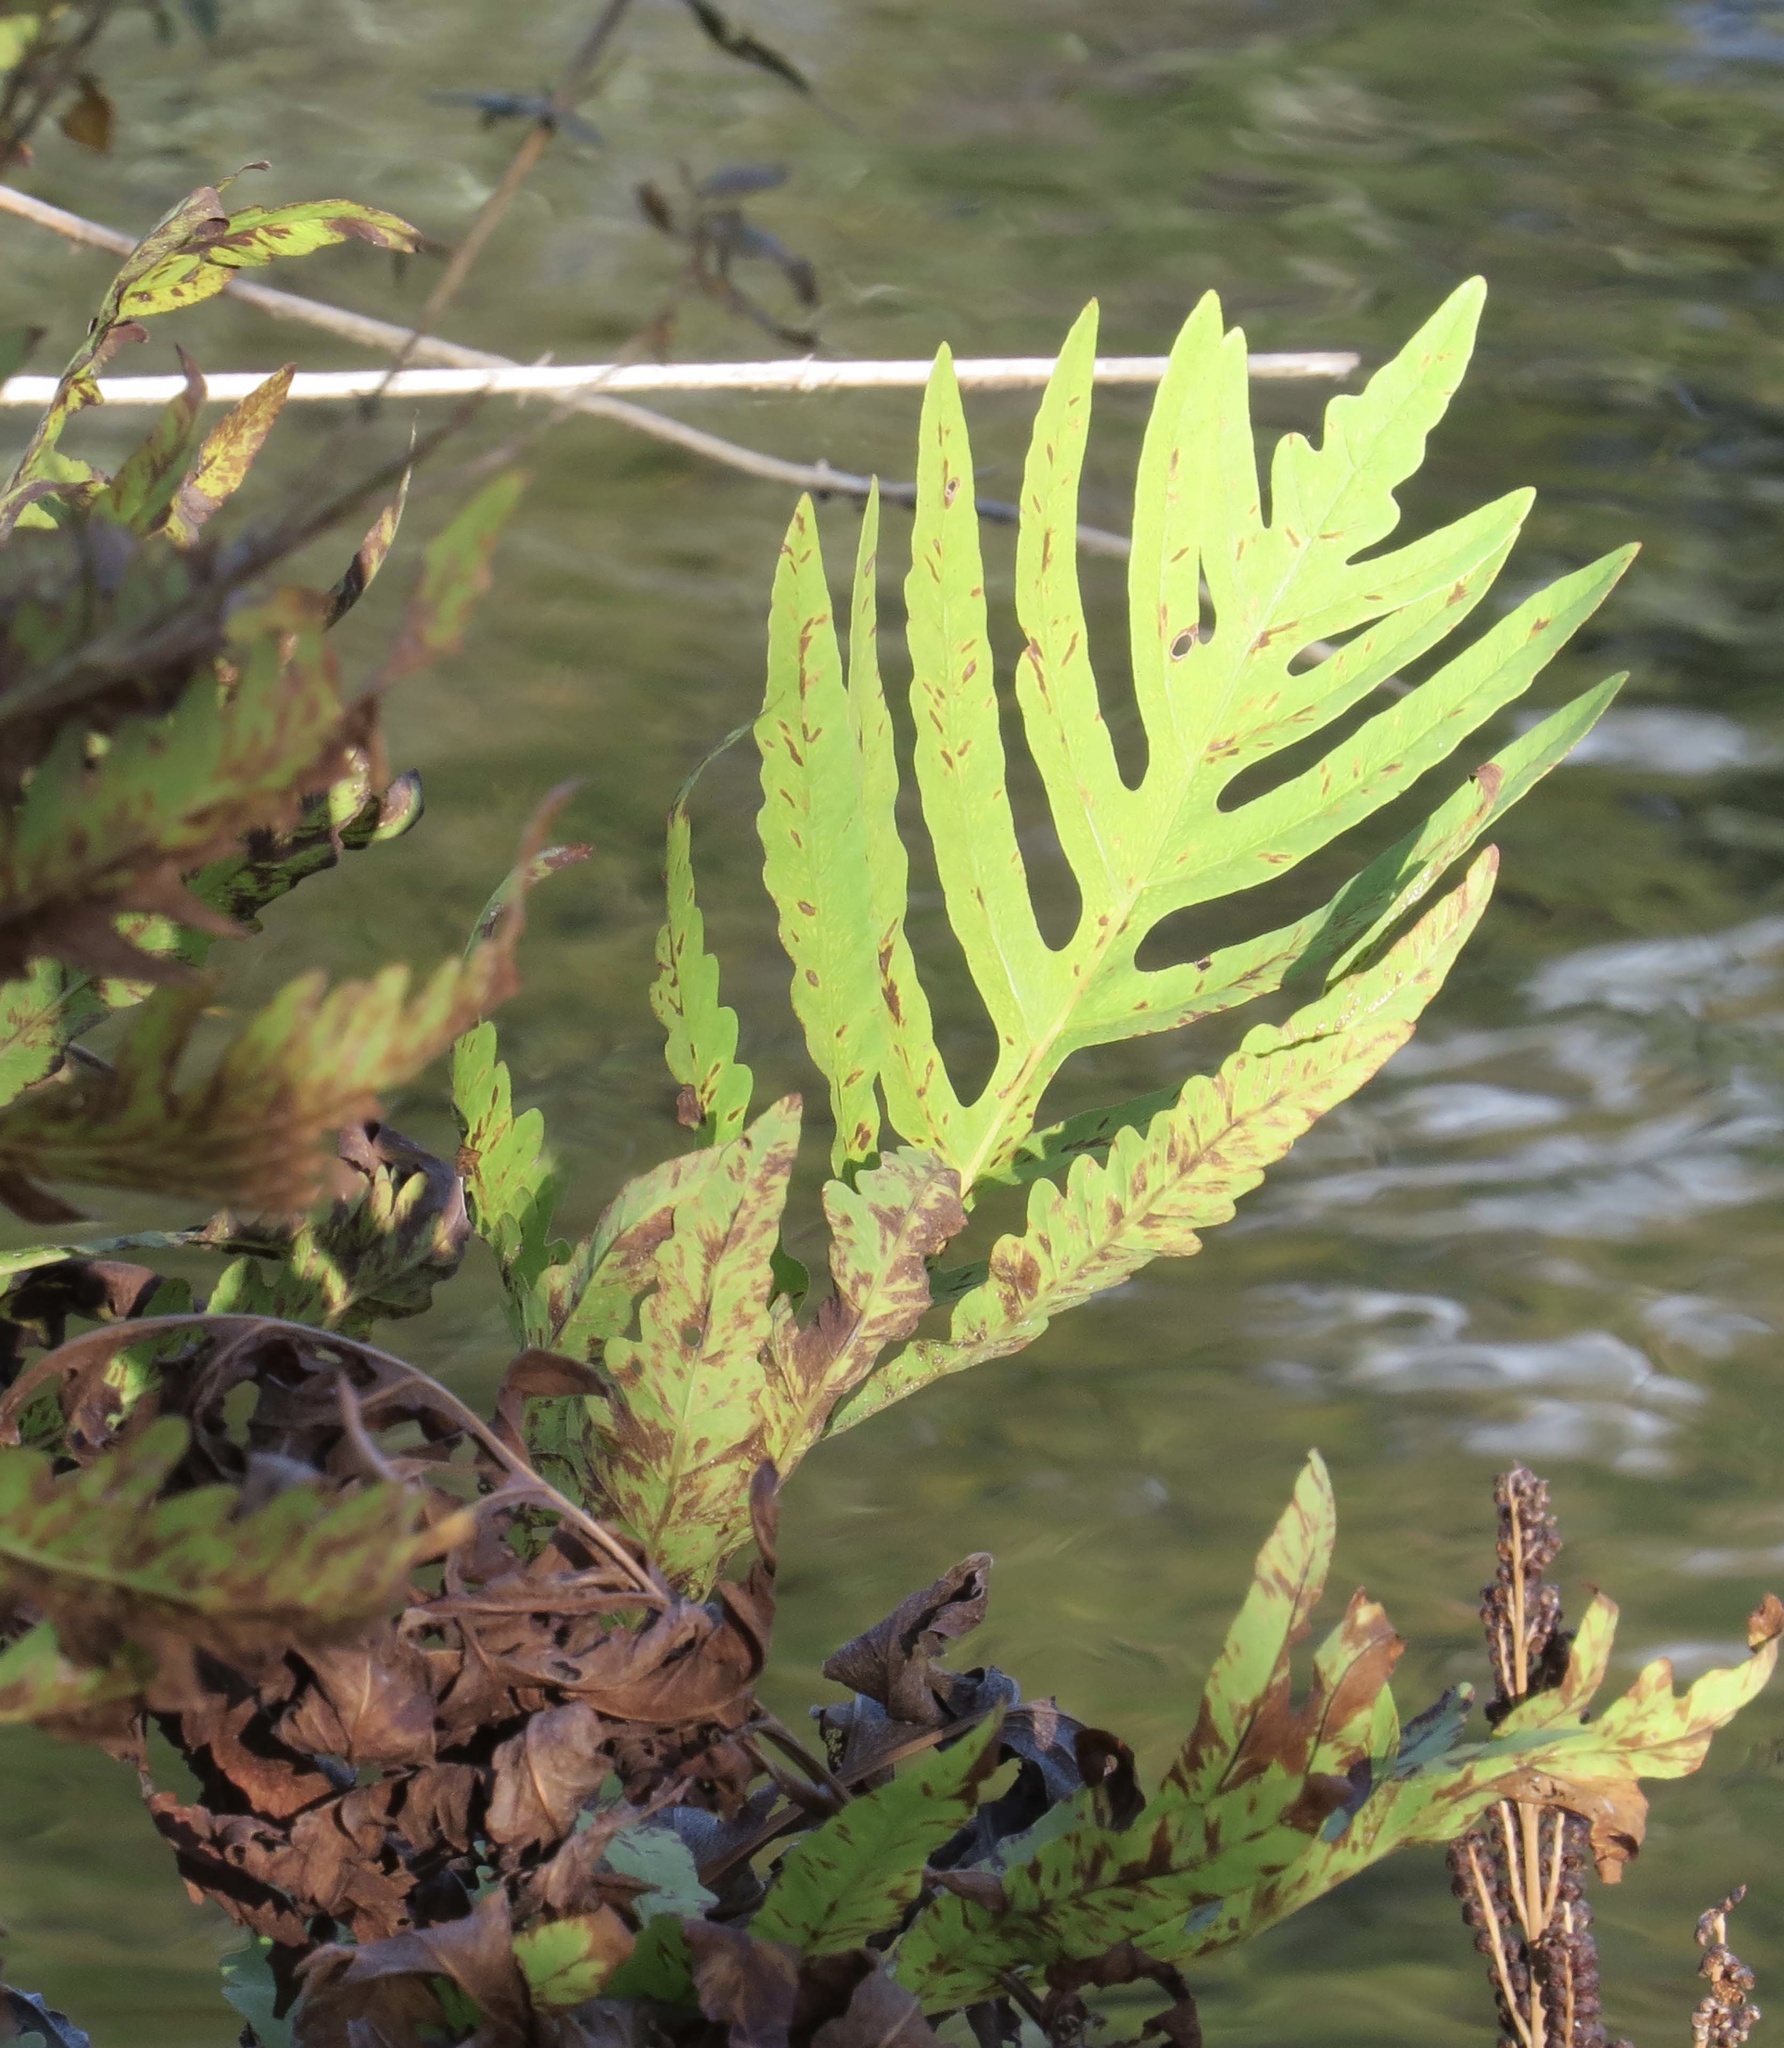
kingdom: Plantae
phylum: Tracheophyta
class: Polypodiopsida
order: Polypodiales
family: Onocleaceae
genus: Onoclea
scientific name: Onoclea sensibilis
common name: Sensitive fern
